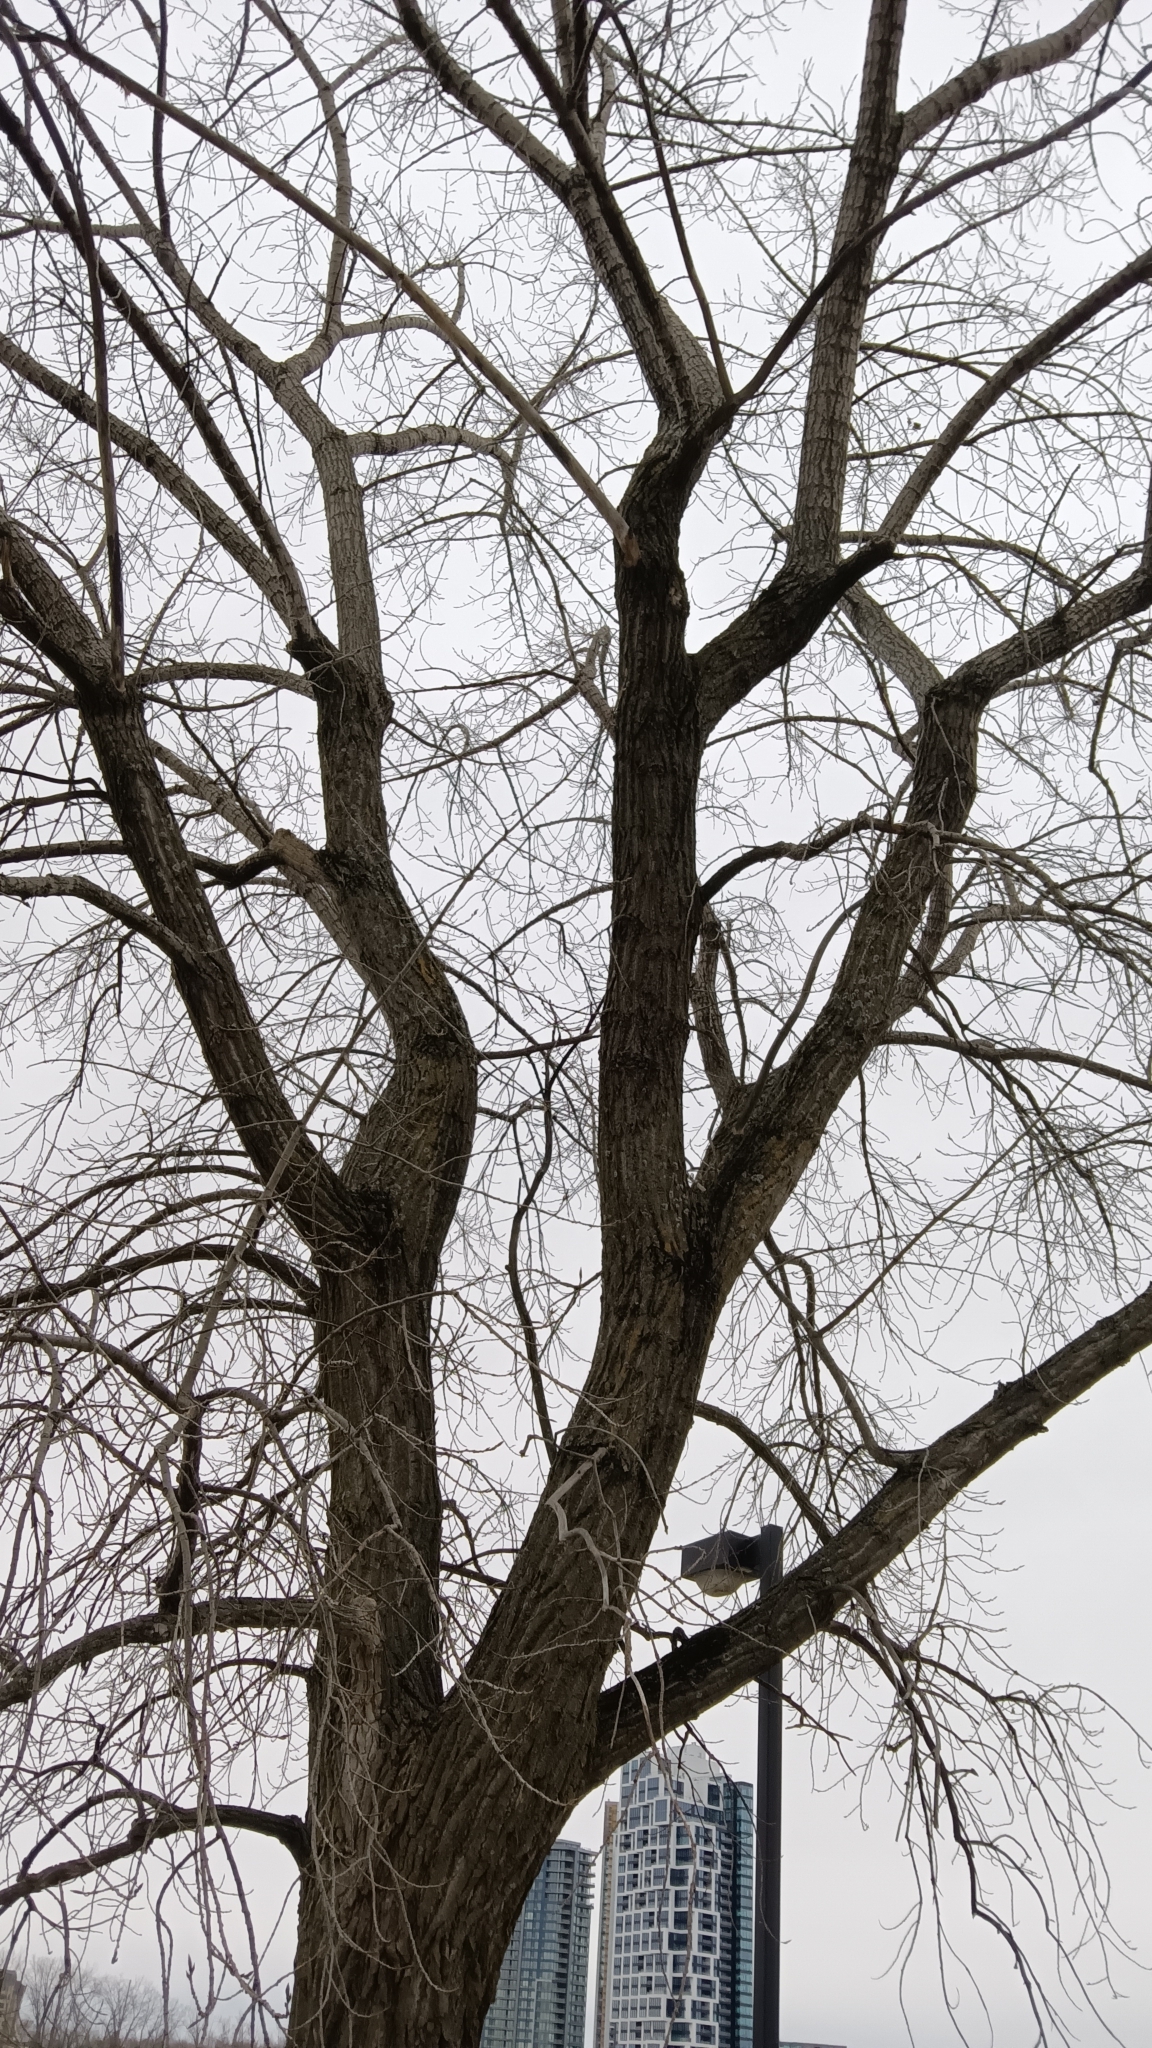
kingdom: Plantae
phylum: Tracheophyta
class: Magnoliopsida
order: Malpighiales
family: Salicaceae
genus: Populus
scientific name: Populus deltoides
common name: Eastern cottonwood
